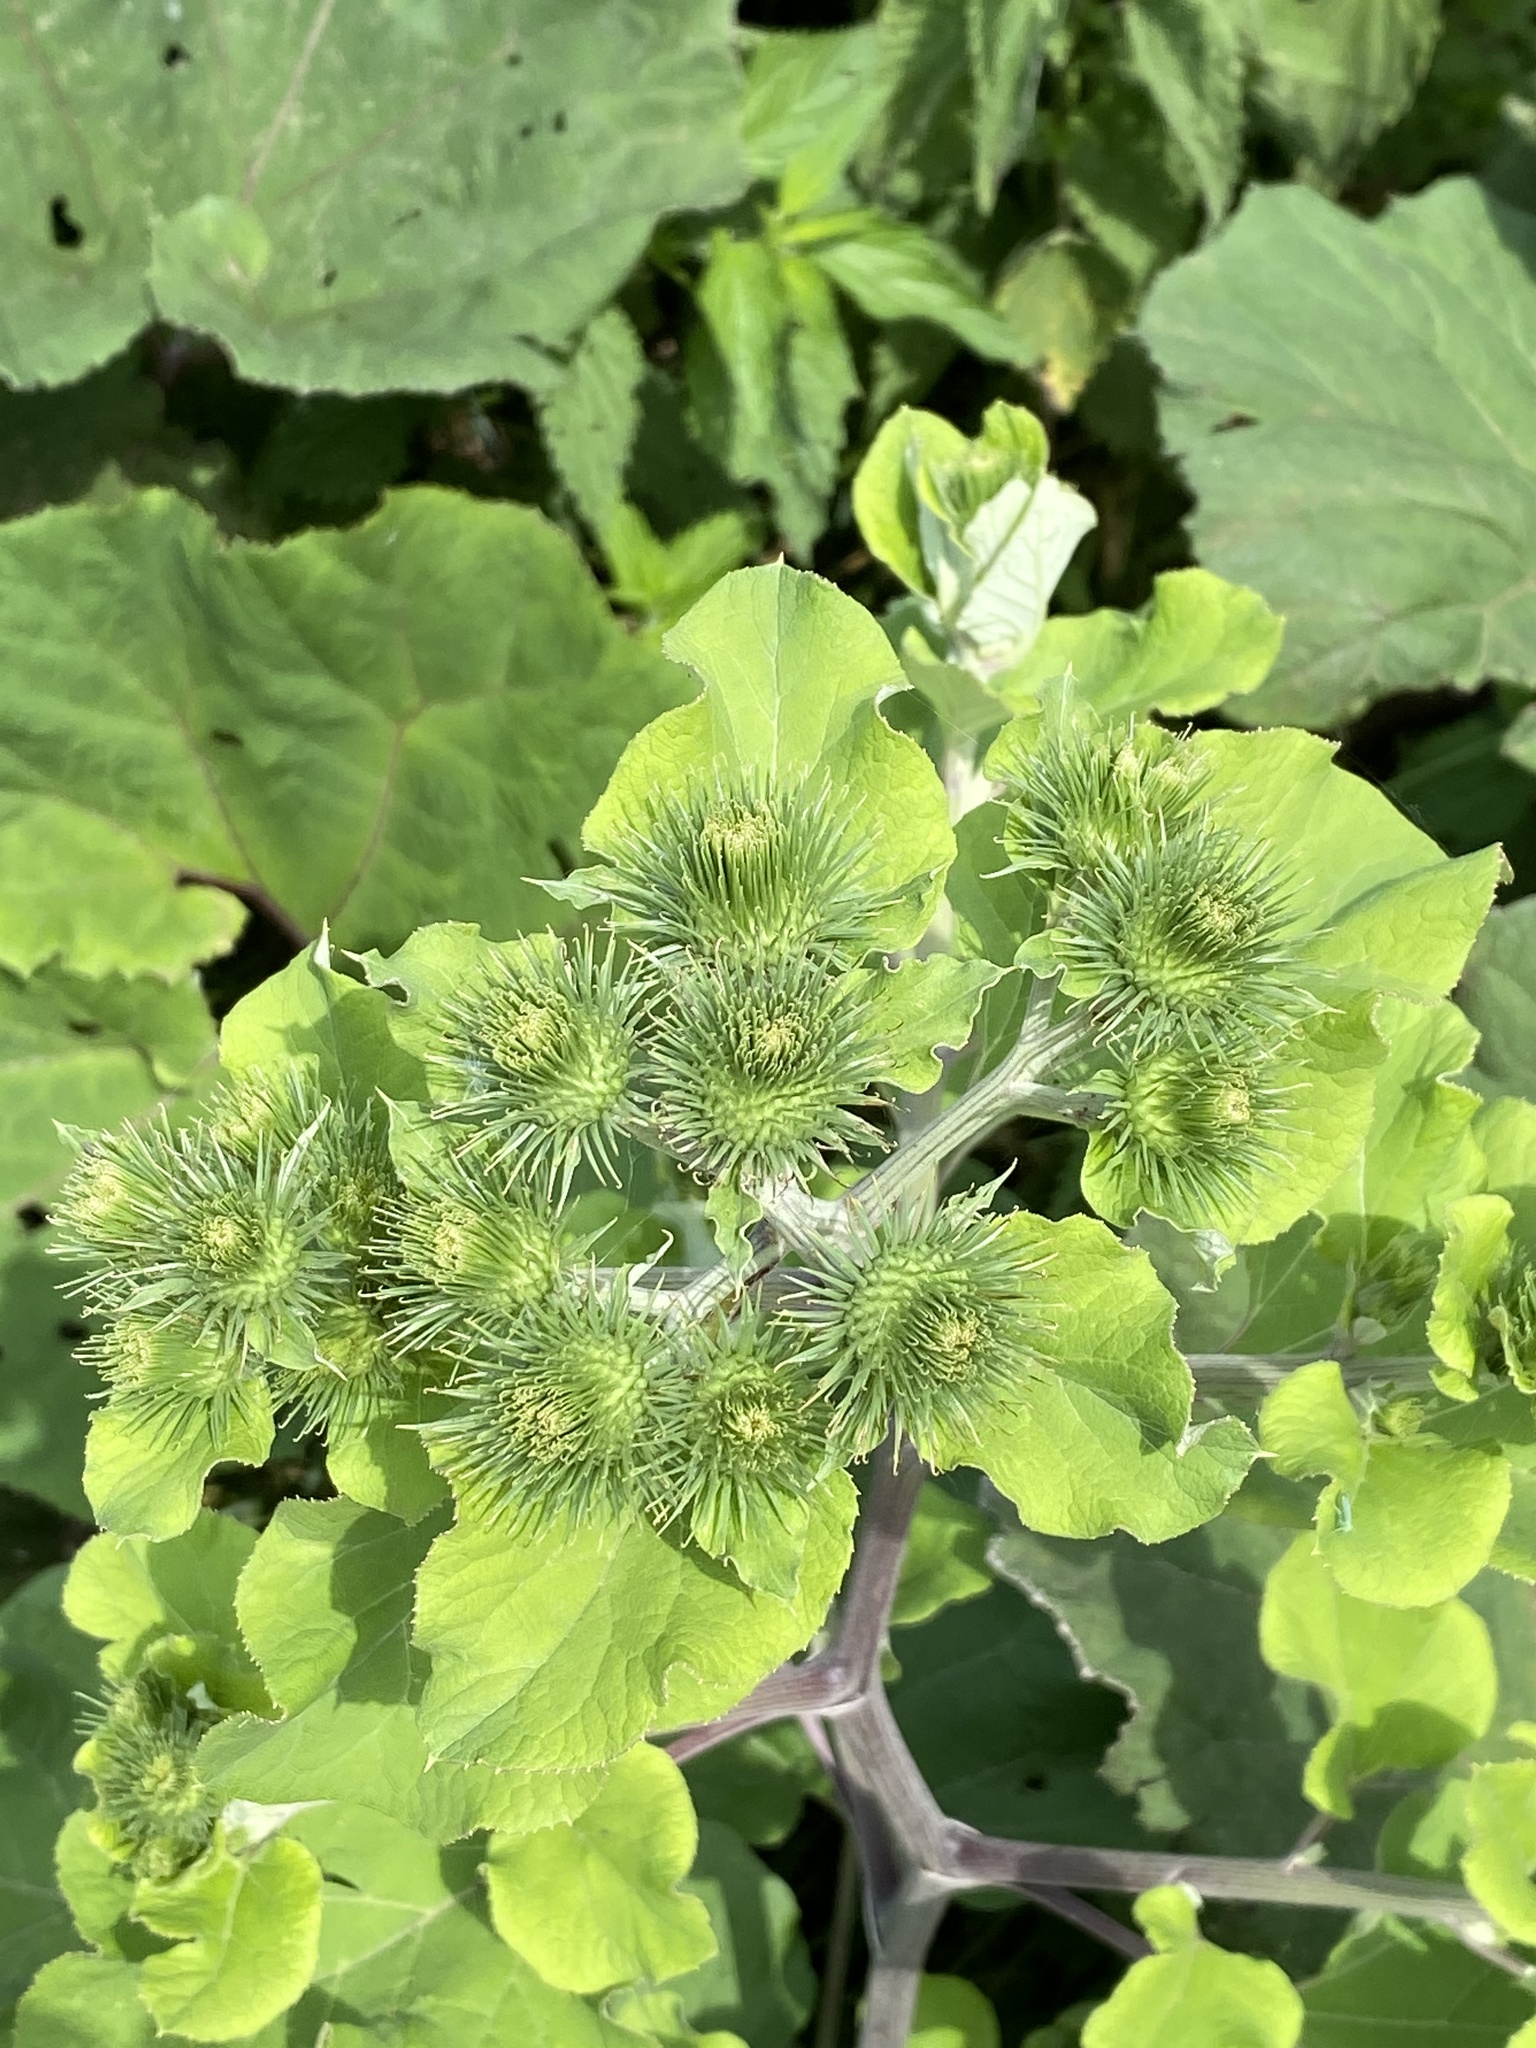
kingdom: Plantae
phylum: Tracheophyta
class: Magnoliopsida
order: Asterales
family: Asteraceae
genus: Arctium
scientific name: Arctium lappa
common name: Greater burdock
